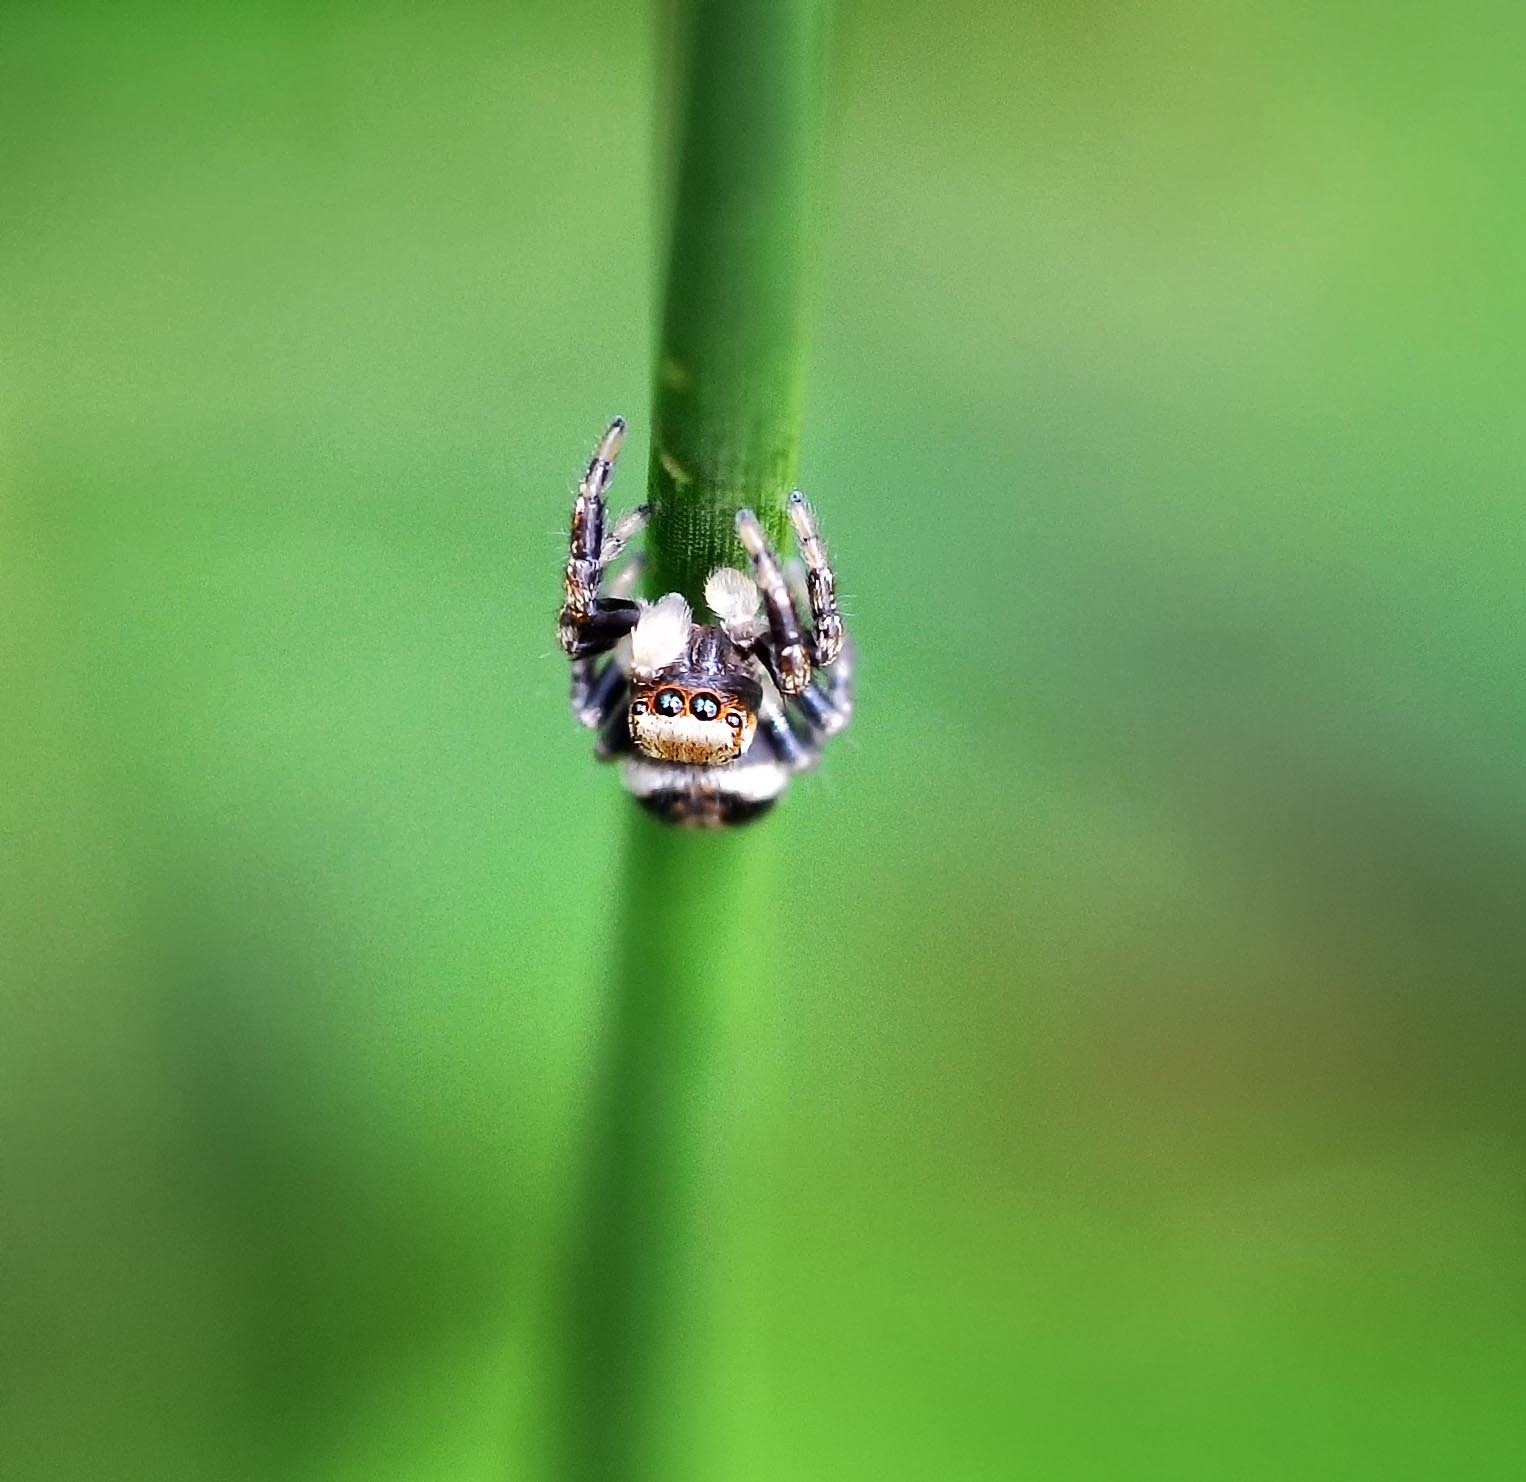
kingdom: Animalia
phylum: Arthropoda
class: Arachnida
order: Araneae
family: Salticidae
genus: Evarcha
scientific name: Evarcha falcata
